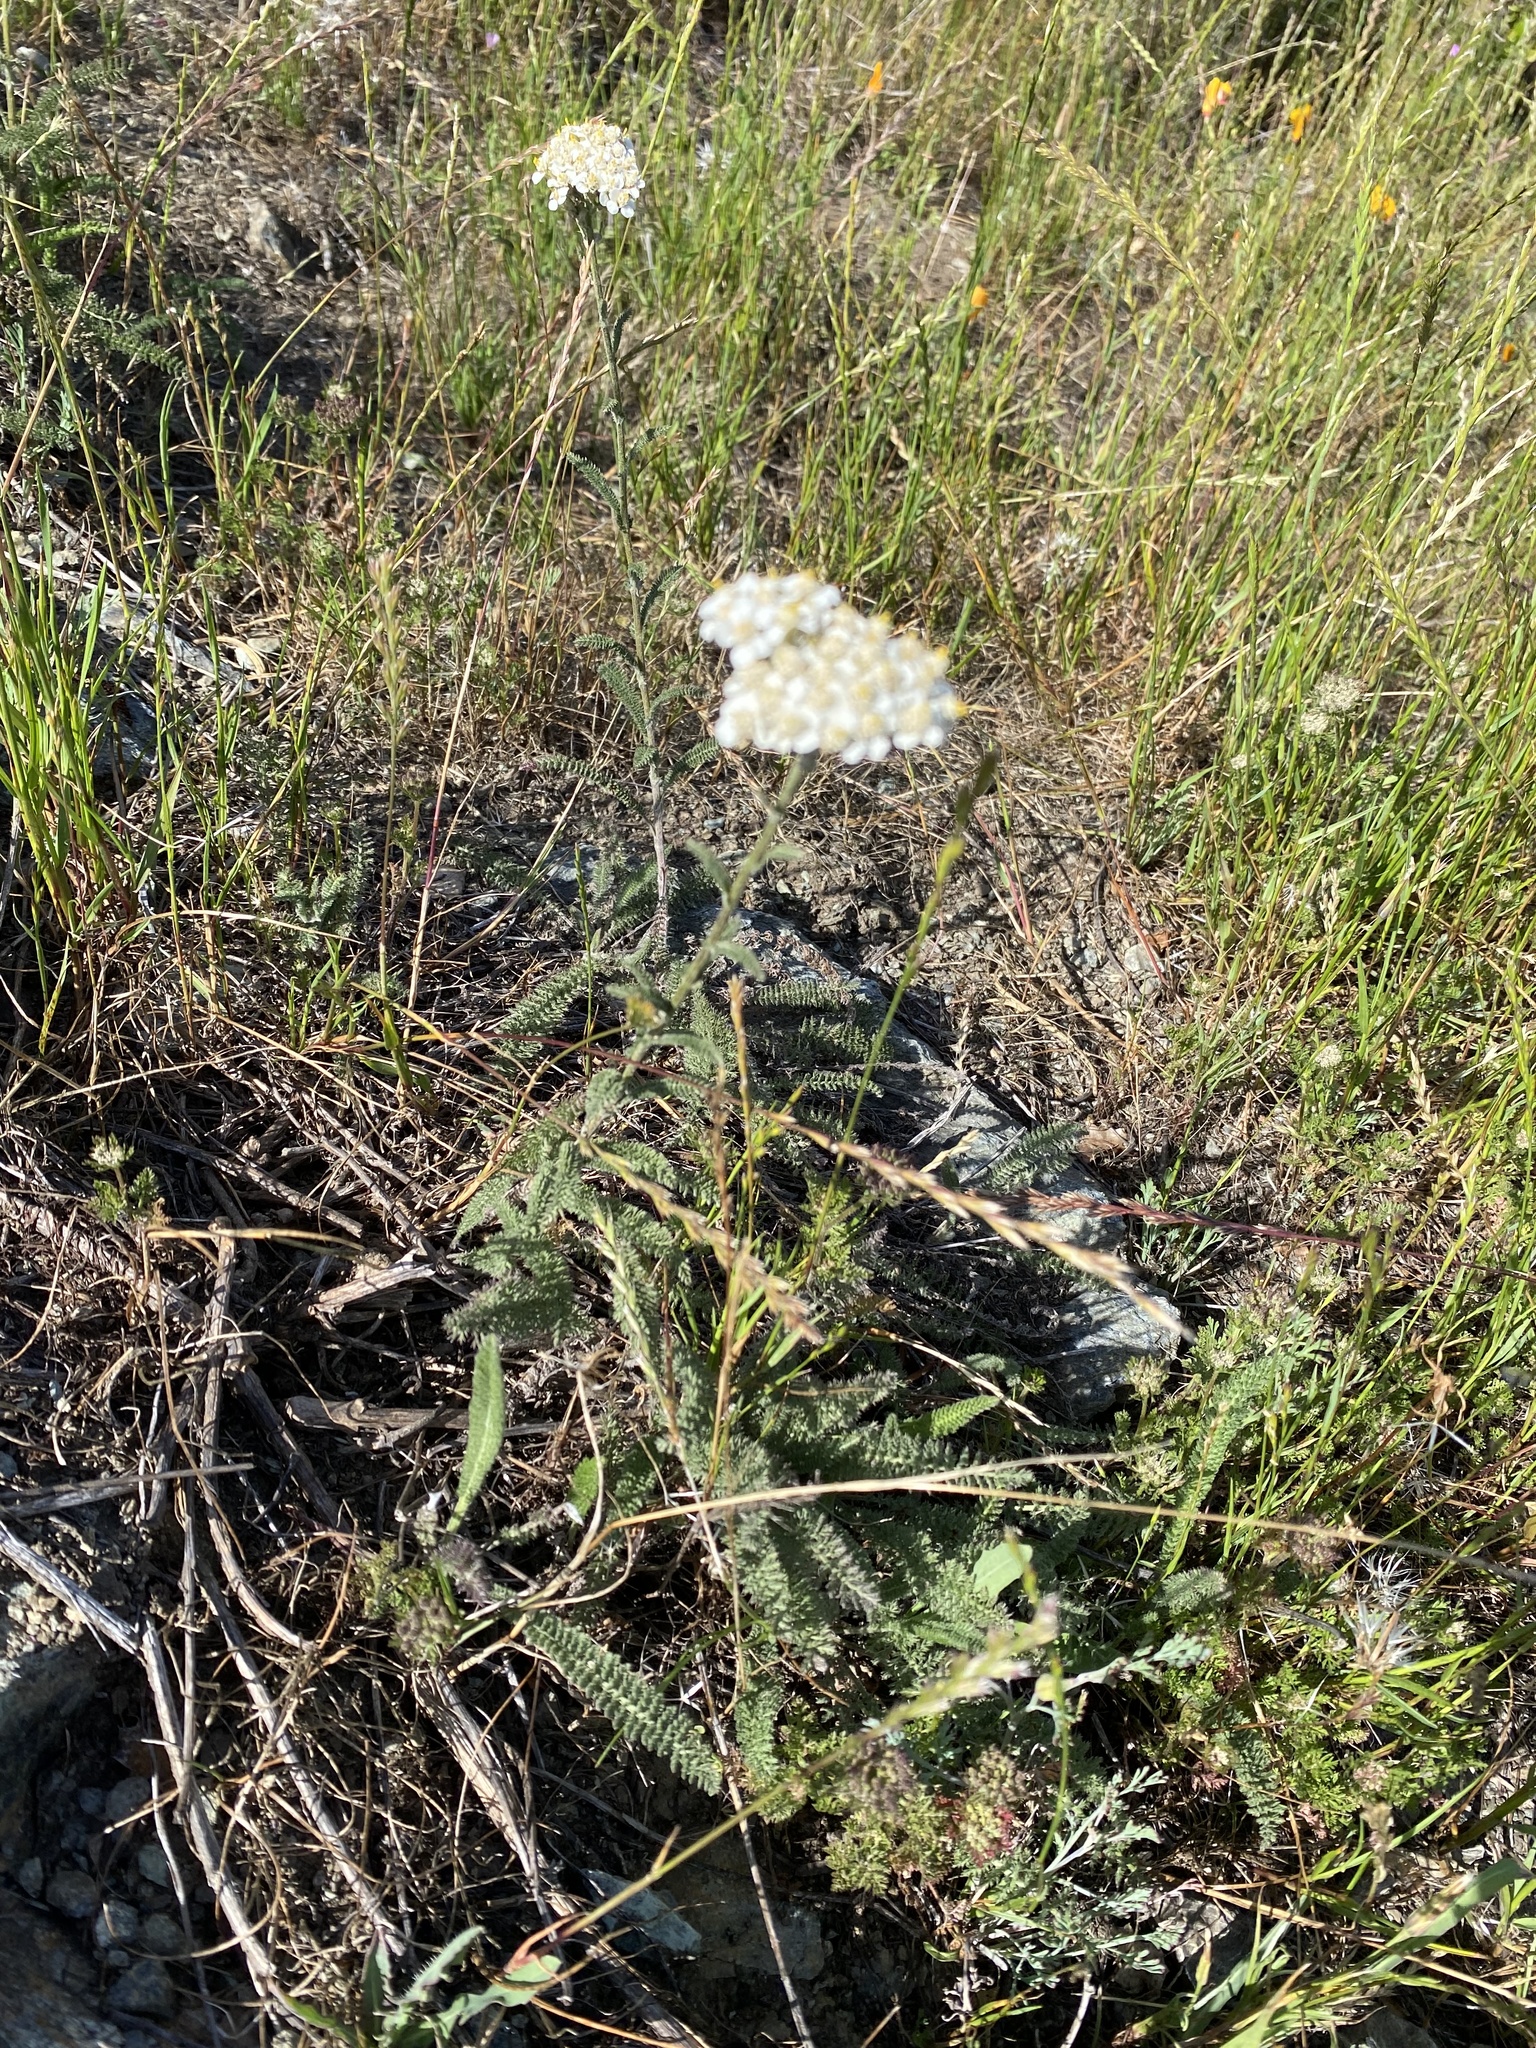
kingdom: Plantae
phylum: Tracheophyta
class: Magnoliopsida
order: Asterales
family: Asteraceae
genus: Achillea
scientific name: Achillea millefolium
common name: Yarrow
